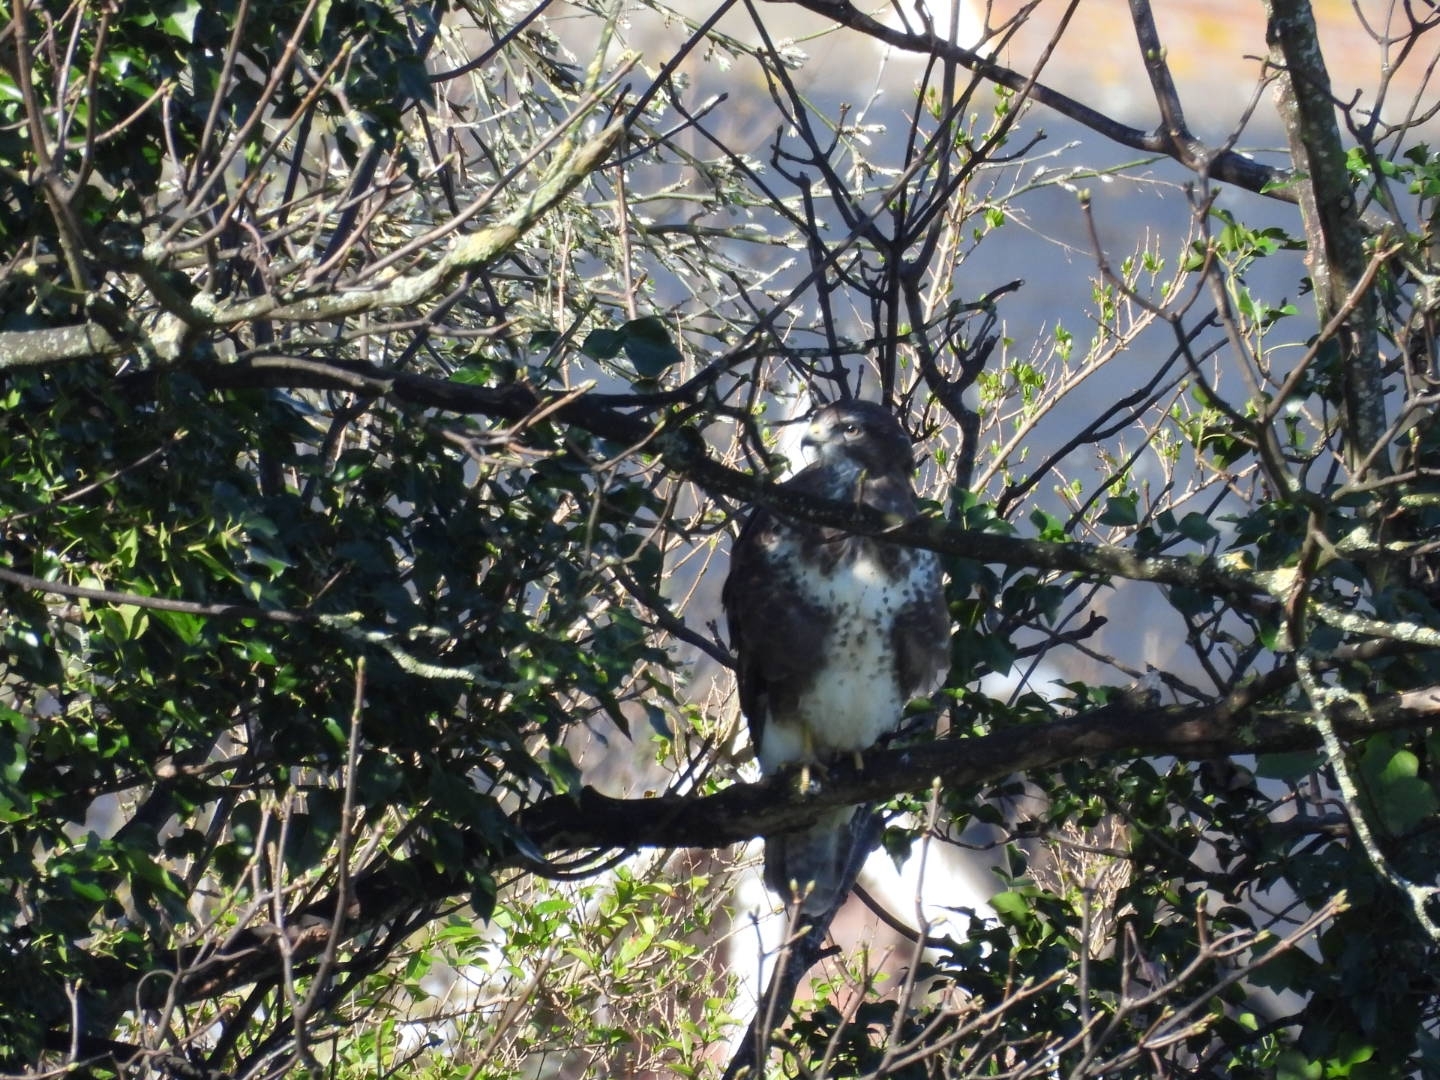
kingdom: Animalia
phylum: Chordata
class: Aves
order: Accipitriformes
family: Accipitridae
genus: Buteo
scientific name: Buteo buteo
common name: Common buzzard
